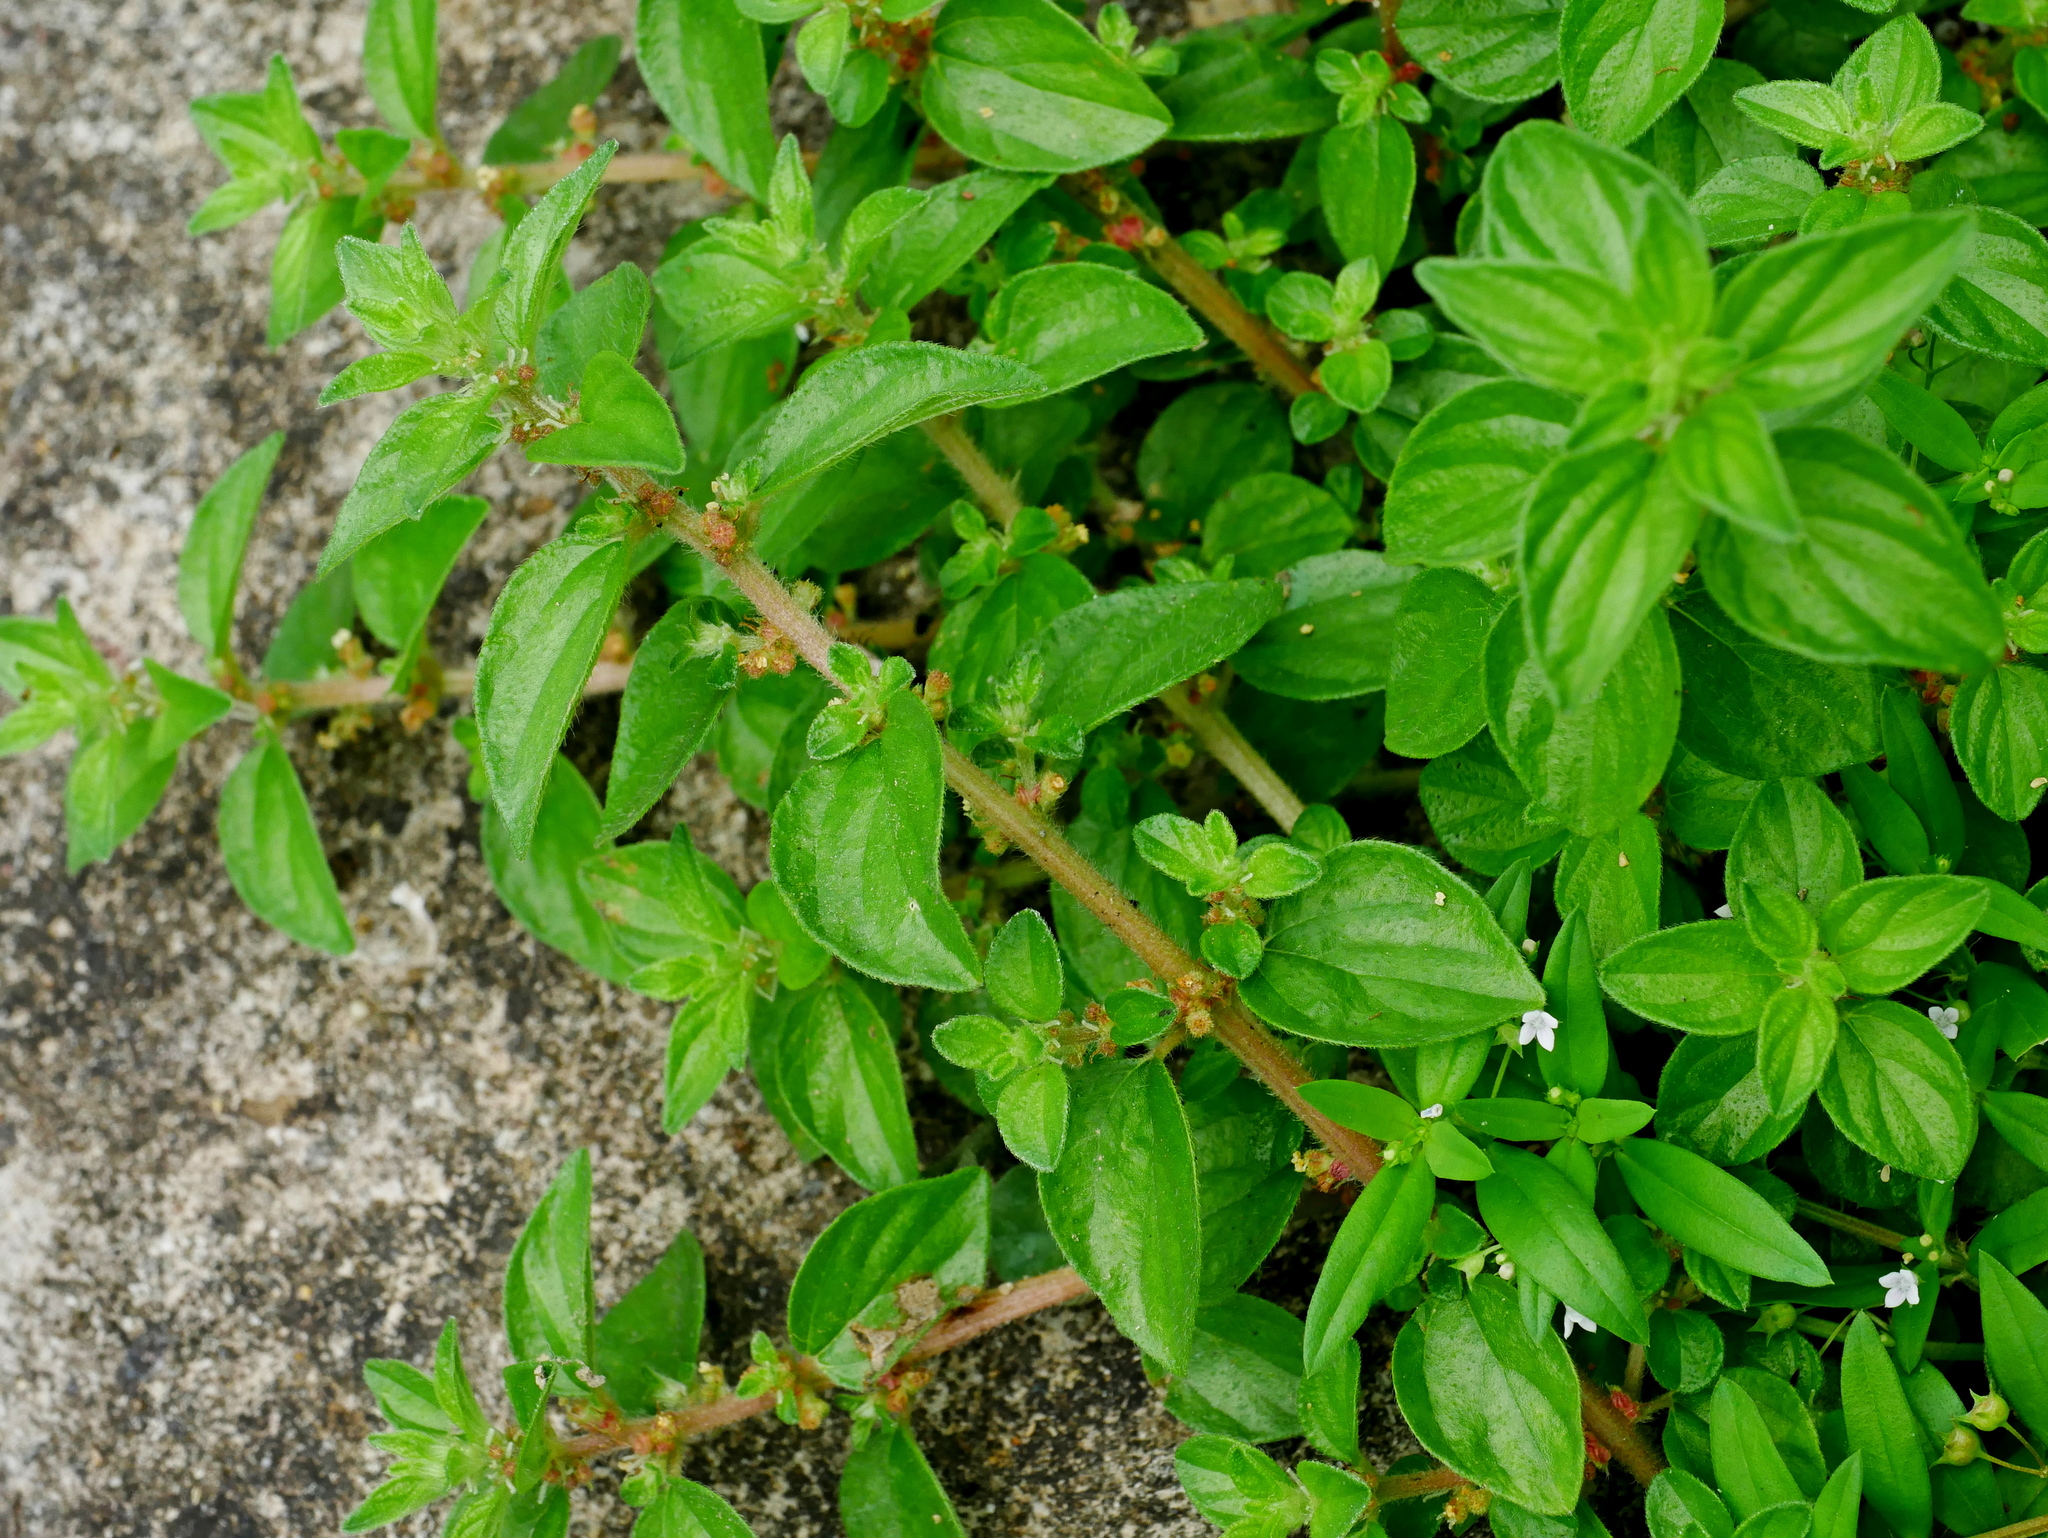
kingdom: Plantae
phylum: Tracheophyta
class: Magnoliopsida
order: Rosales
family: Urticaceae
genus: Pouzolzia
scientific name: Pouzolzia zeylanica
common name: Graceful pouzolzsbush
